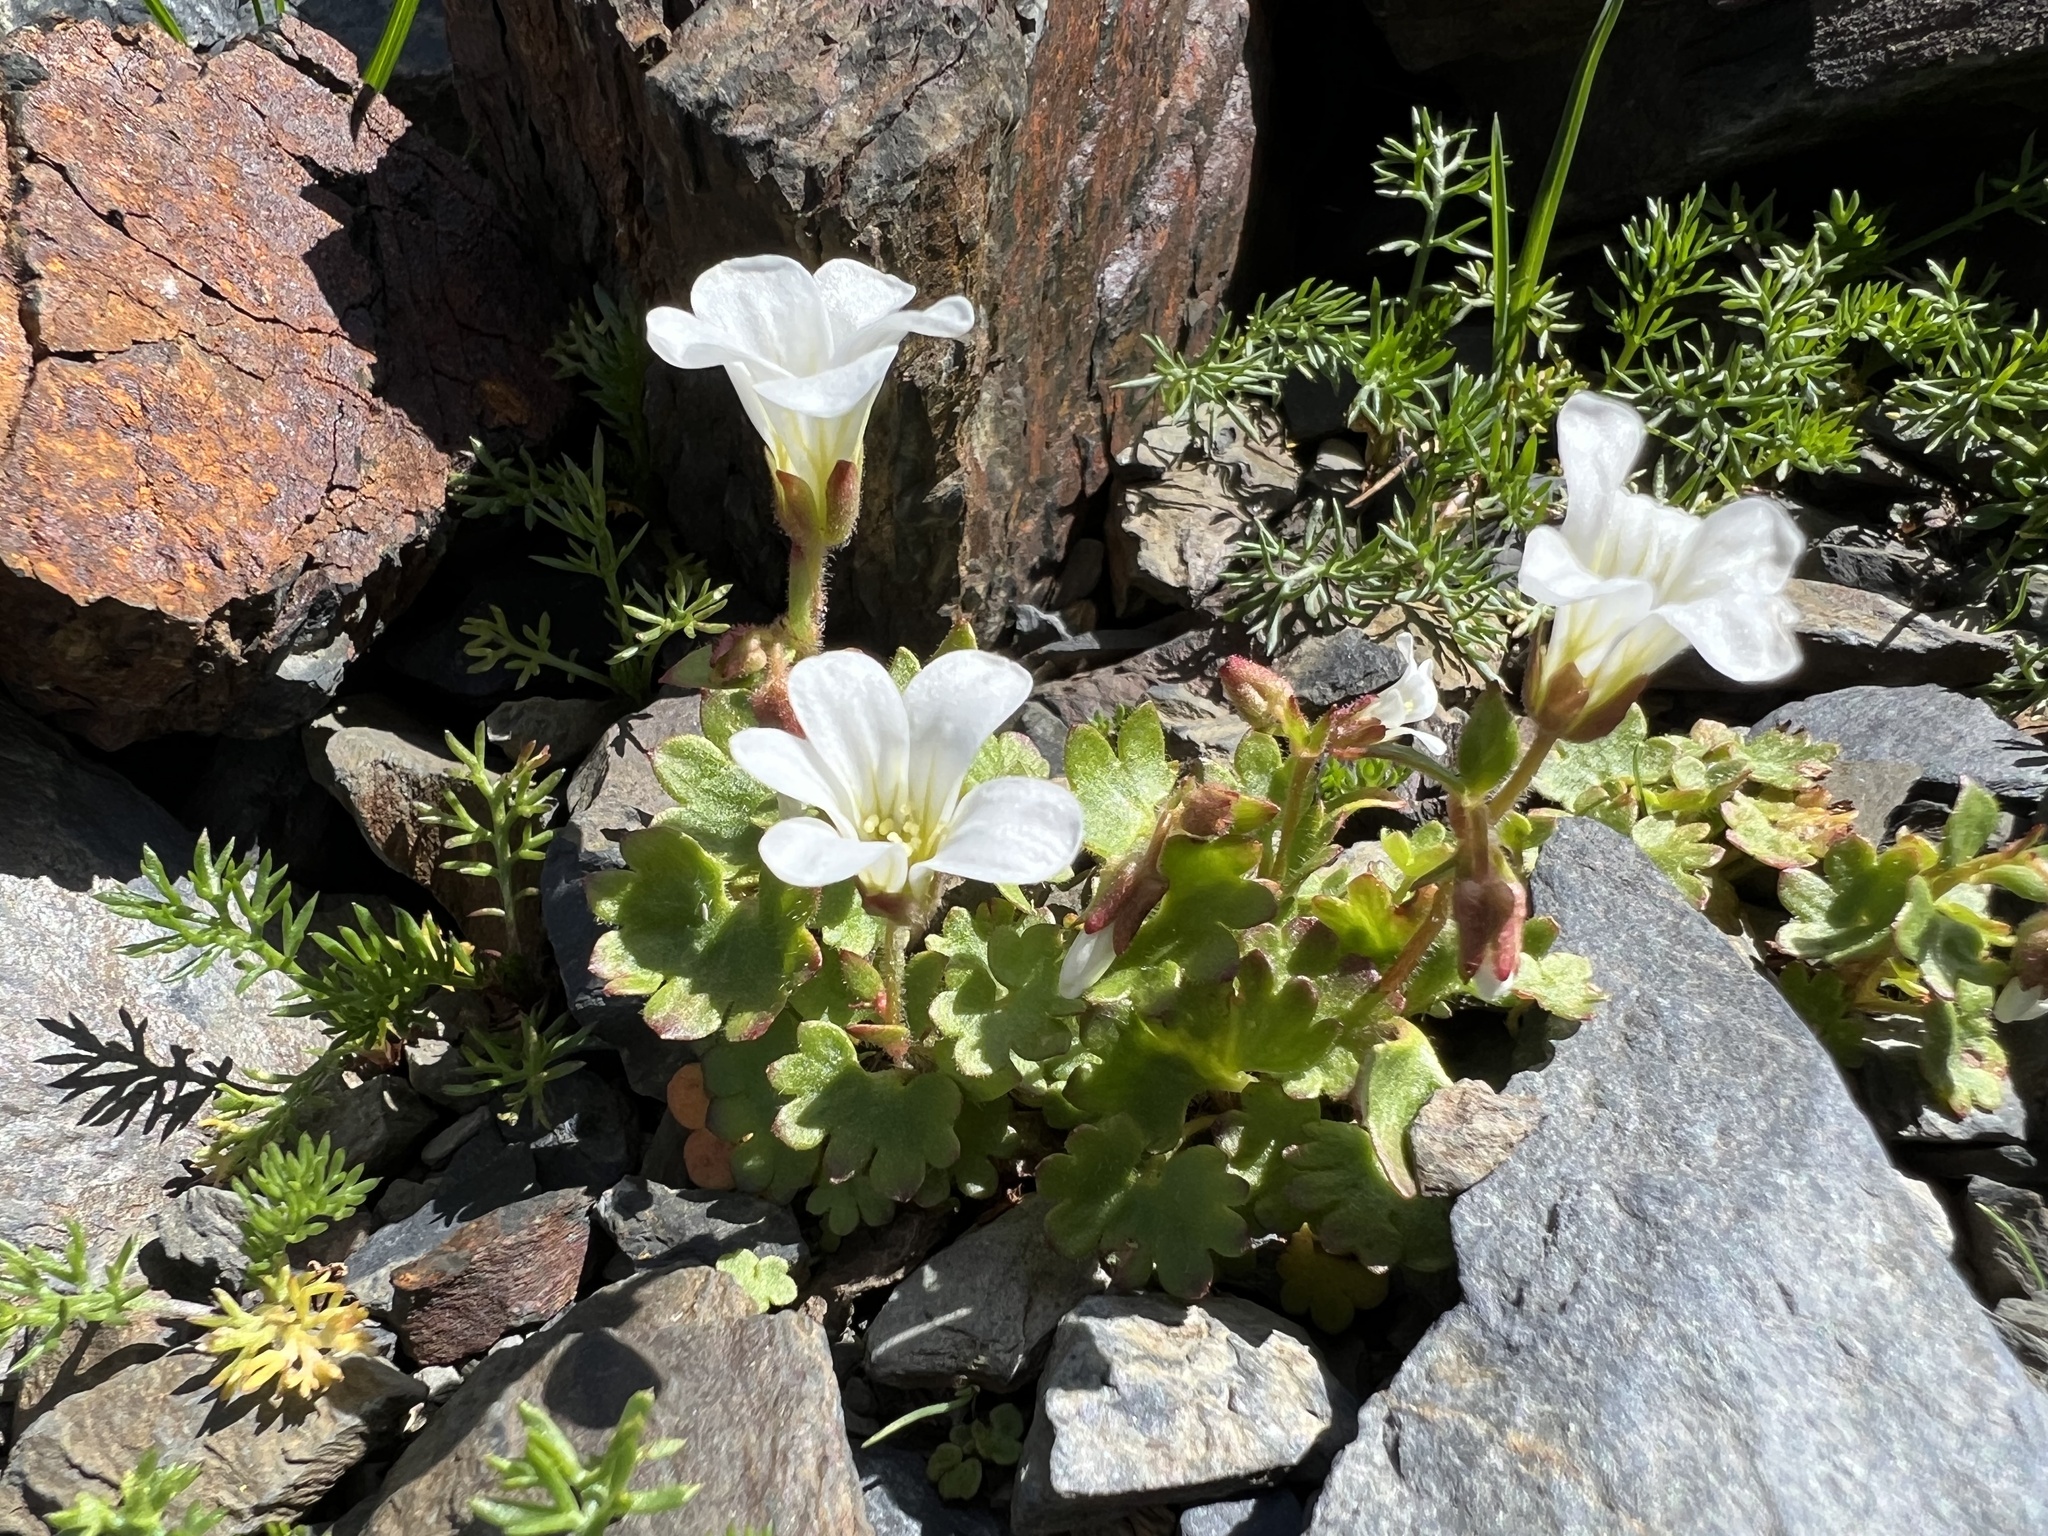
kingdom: Plantae
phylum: Tracheophyta
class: Magnoliopsida
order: Saxifragales
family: Saxifragaceae
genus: Saxifraga
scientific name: Saxifraga sibirica
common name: Siberian saxifrage
